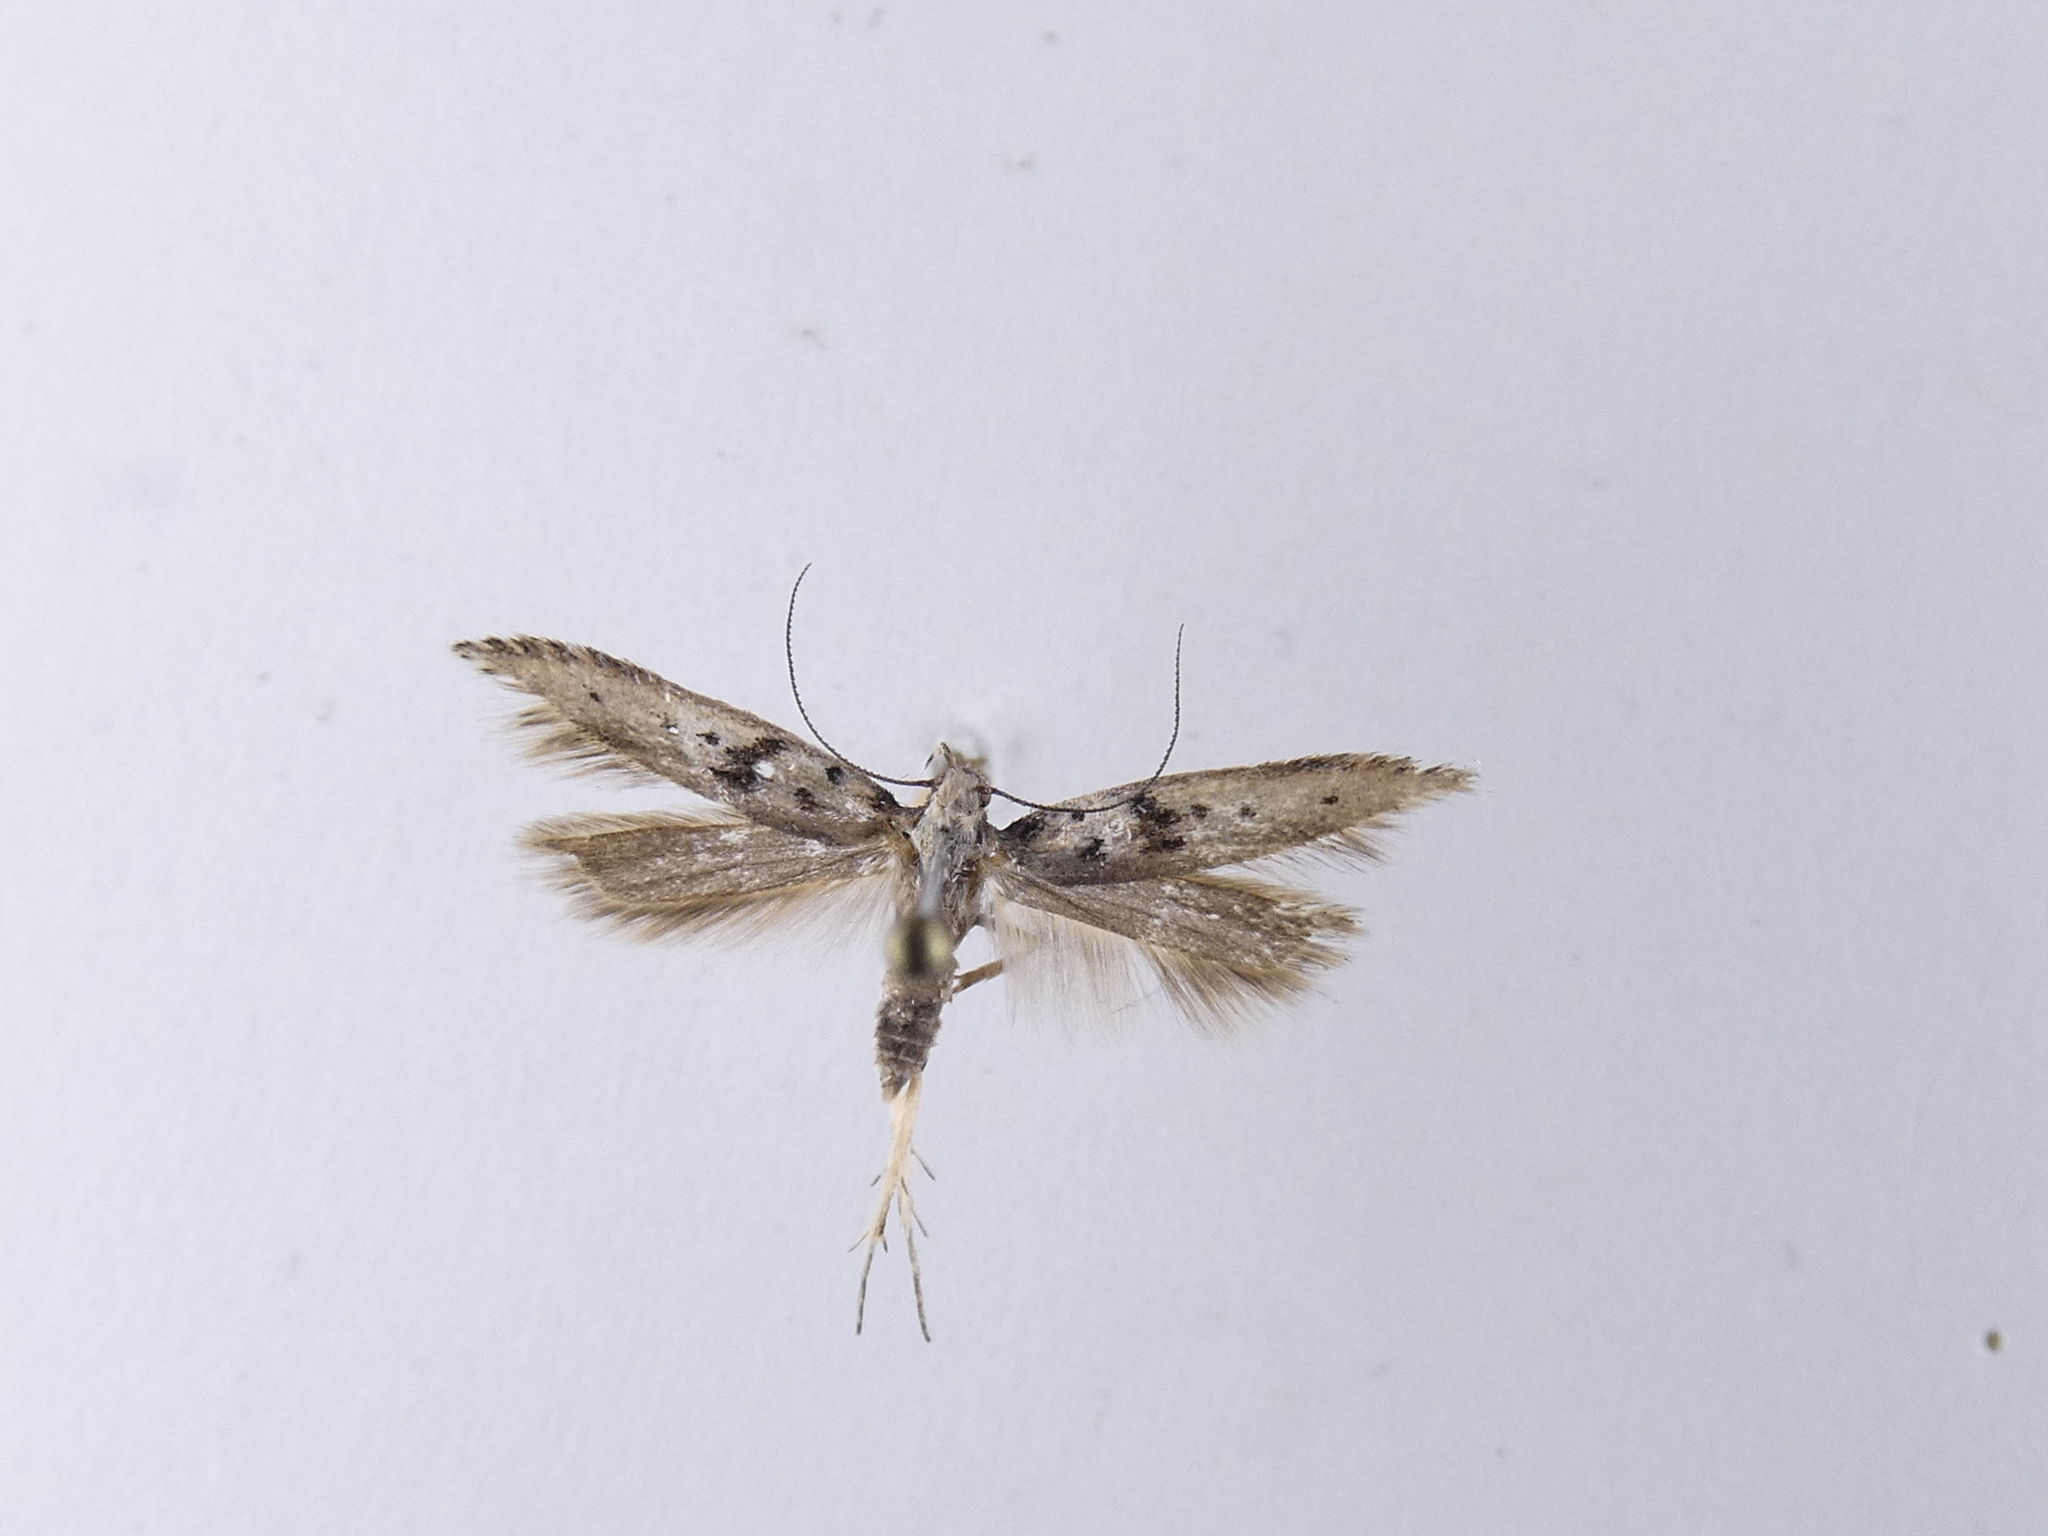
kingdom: Animalia
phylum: Arthropoda
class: Insecta
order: Lepidoptera
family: Gelechiidae
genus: Aristotelia
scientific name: Aristotelia paradesma
